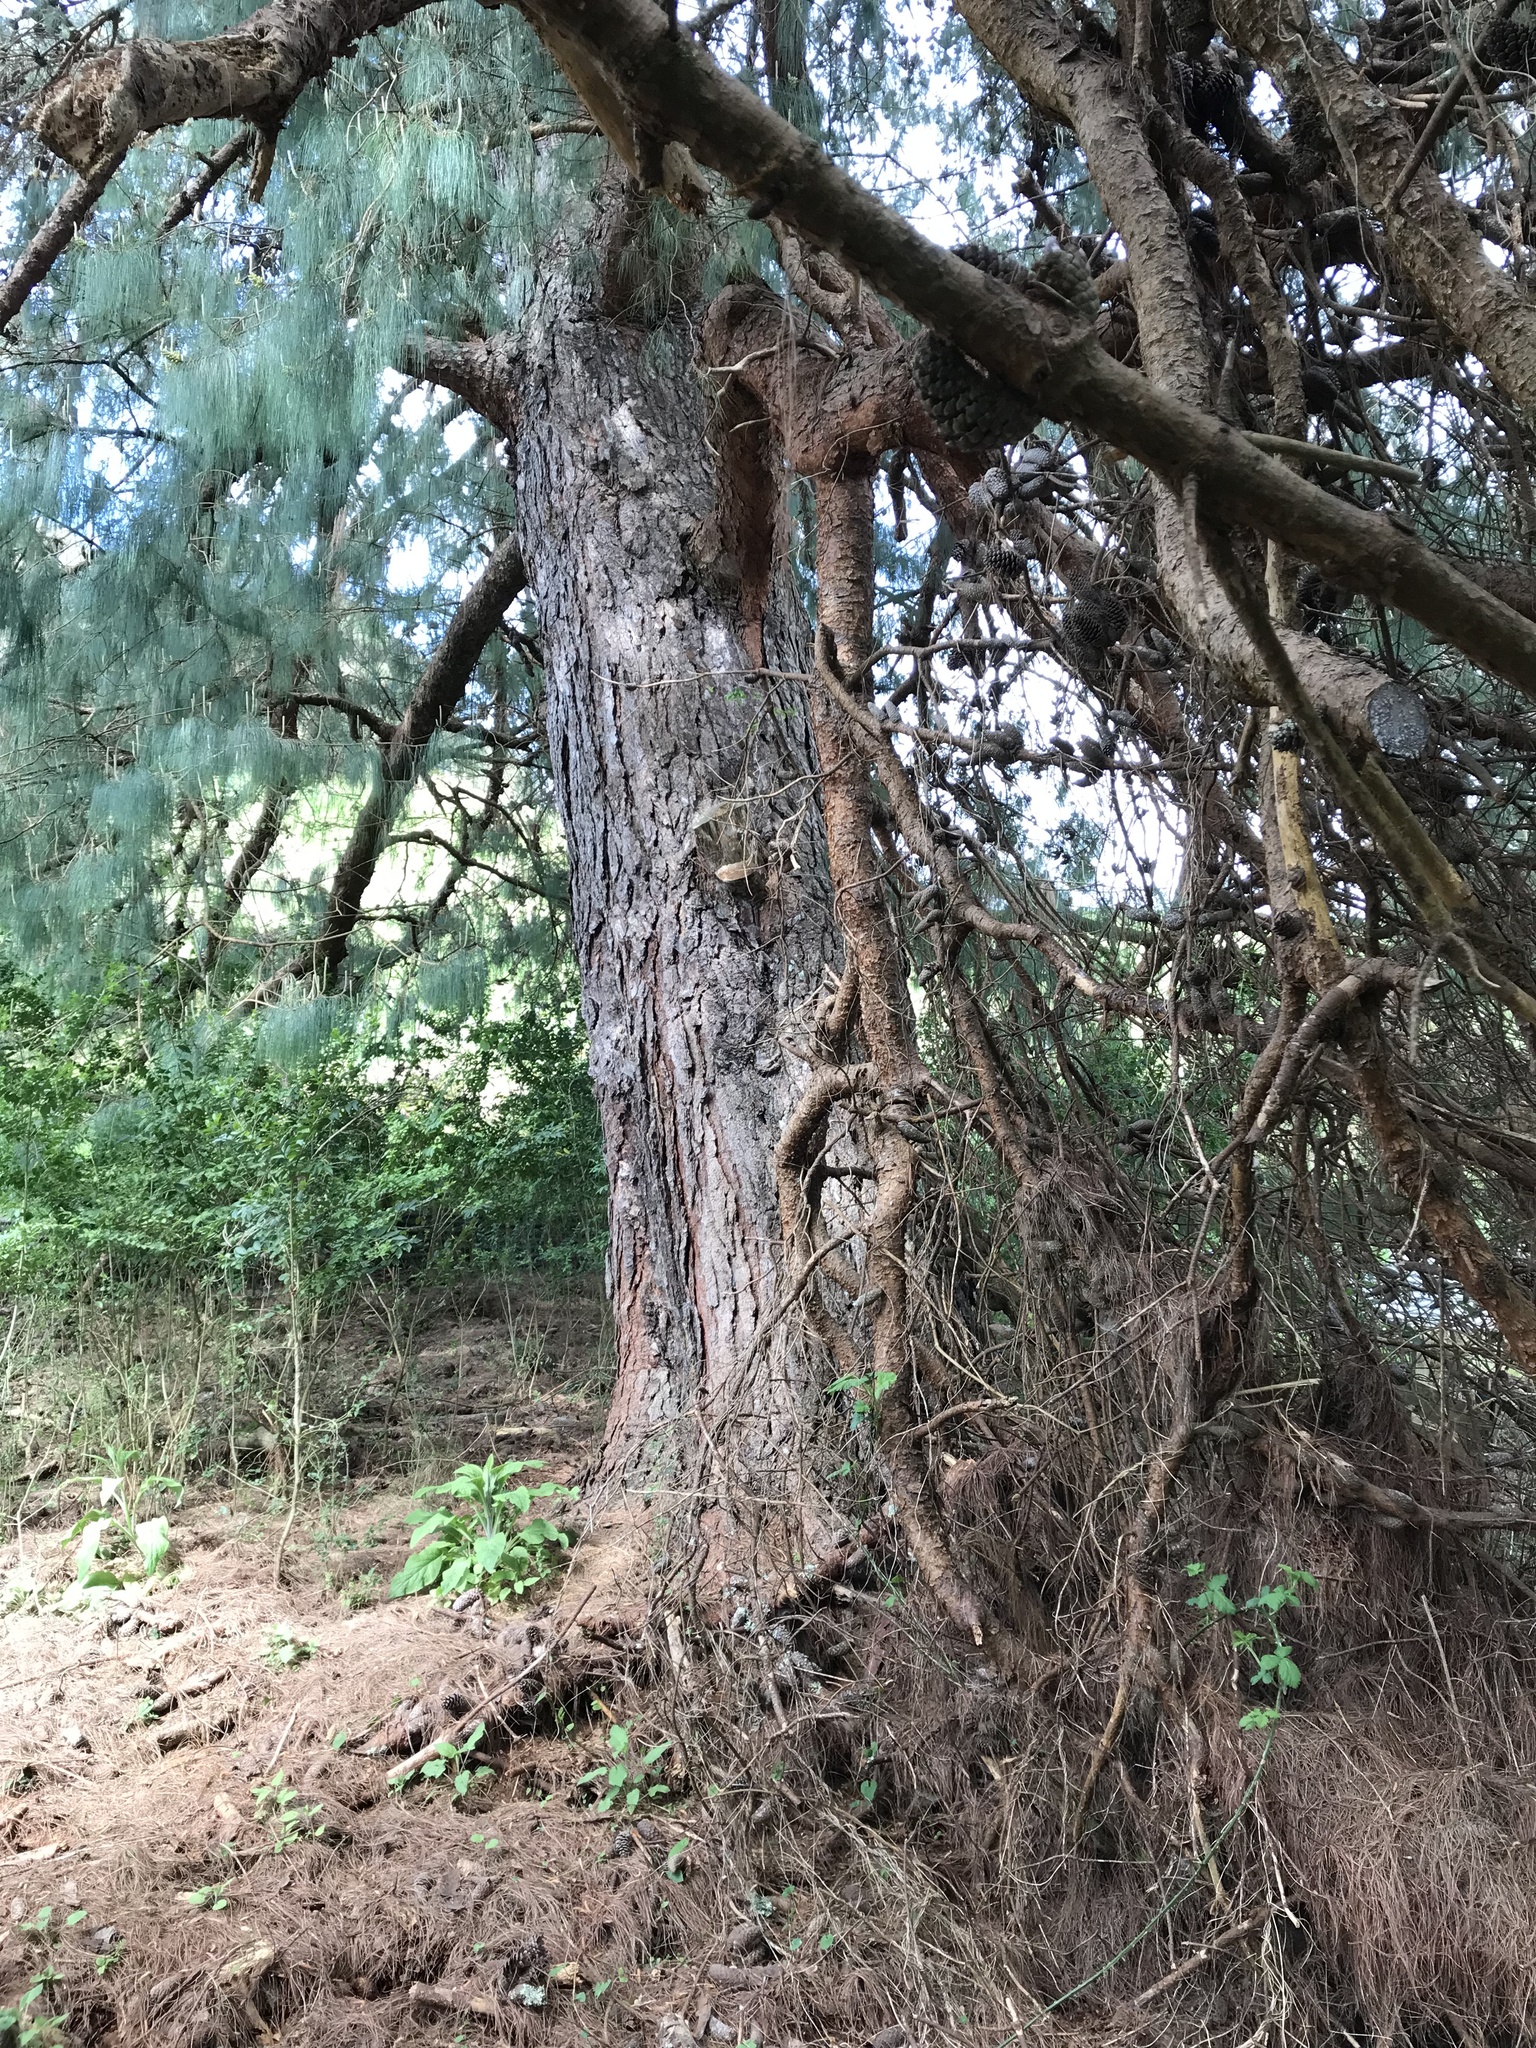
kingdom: Plantae
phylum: Tracheophyta
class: Pinopsida
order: Pinales
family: Pinaceae
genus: Pinus
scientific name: Pinus patula
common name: Mexican weeping pine
